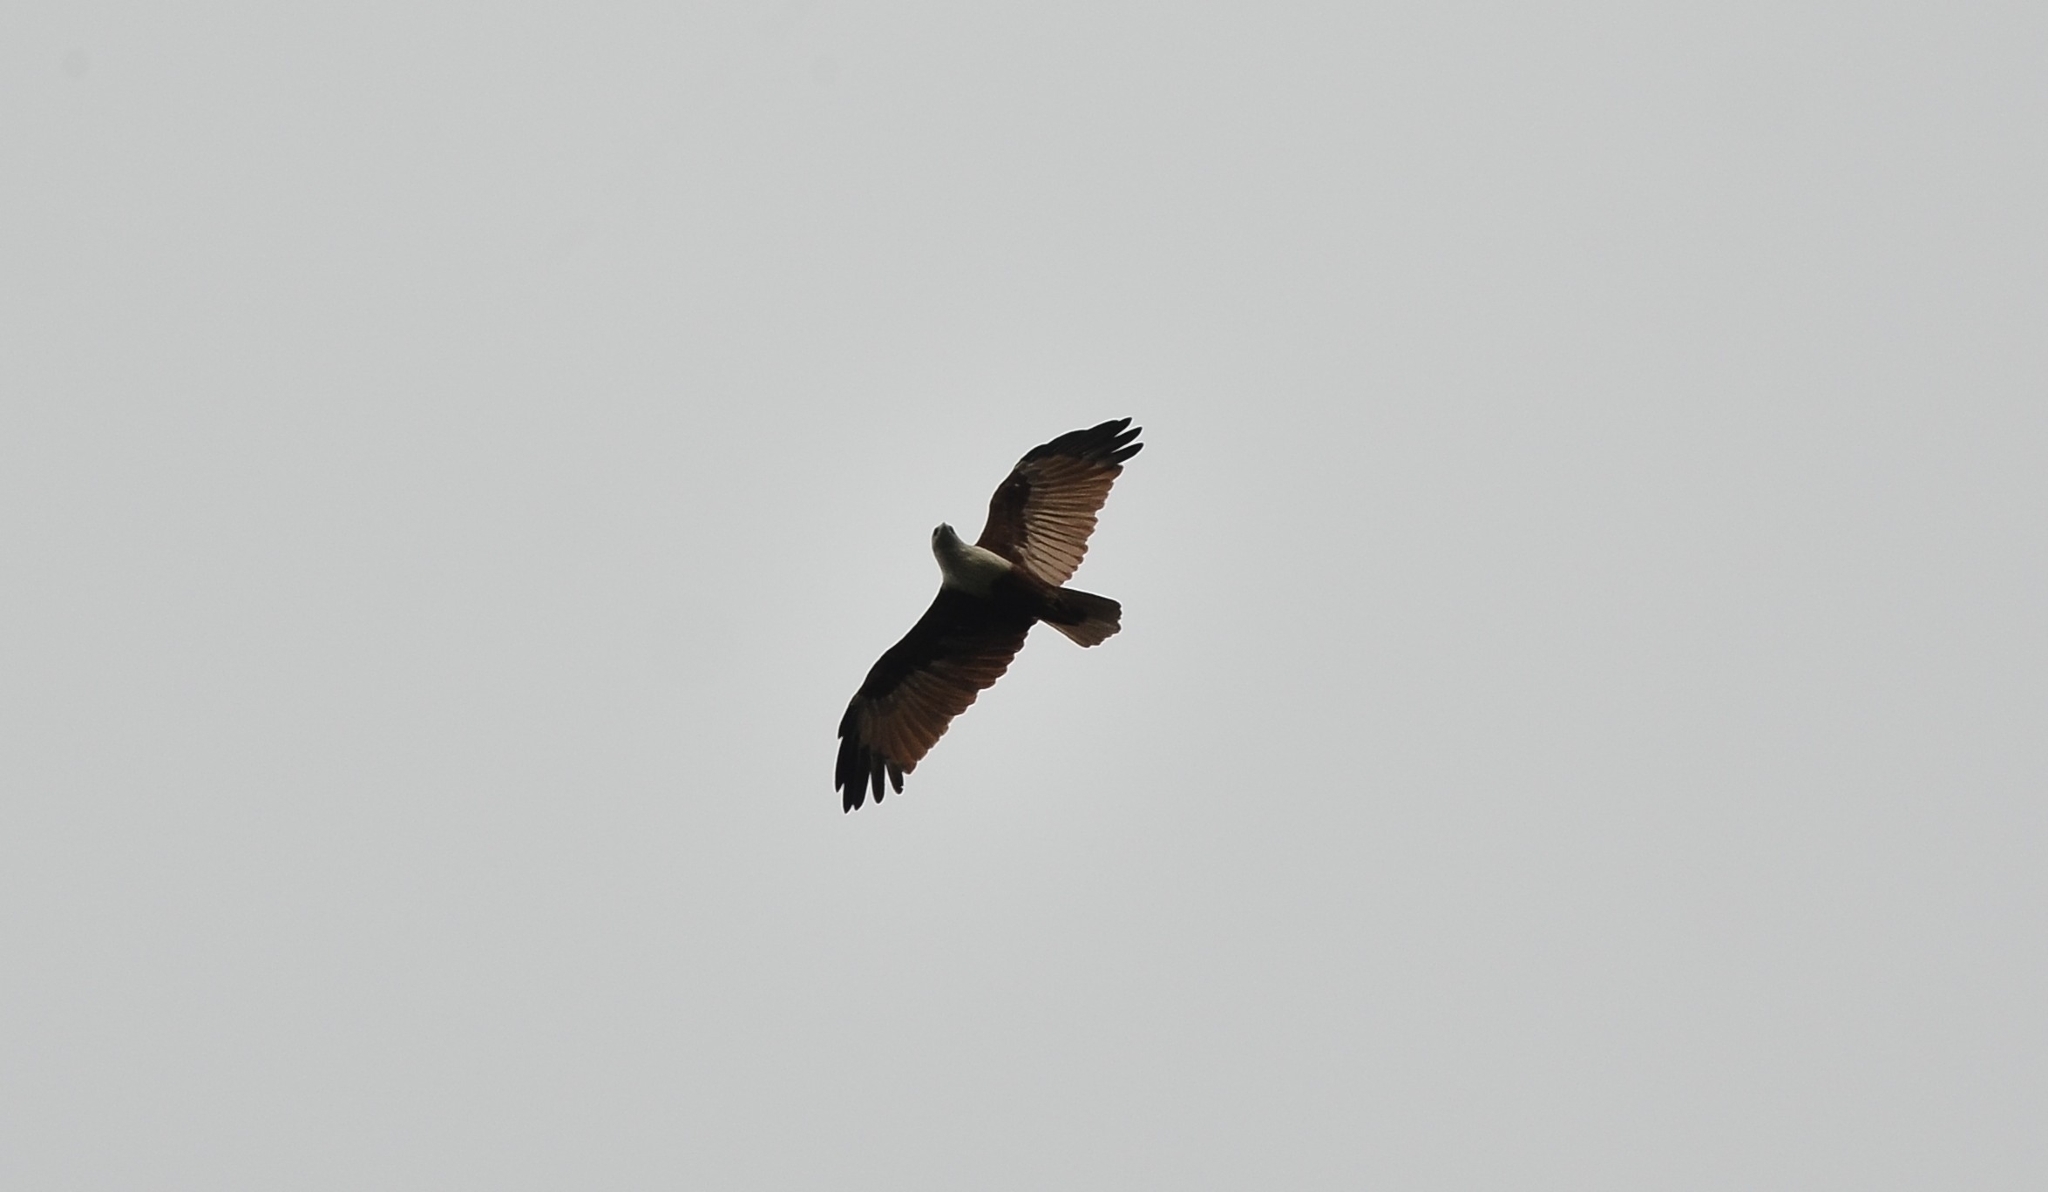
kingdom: Animalia
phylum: Chordata
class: Aves
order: Accipitriformes
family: Accipitridae
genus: Haliastur
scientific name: Haliastur indus
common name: Brahminy kite
